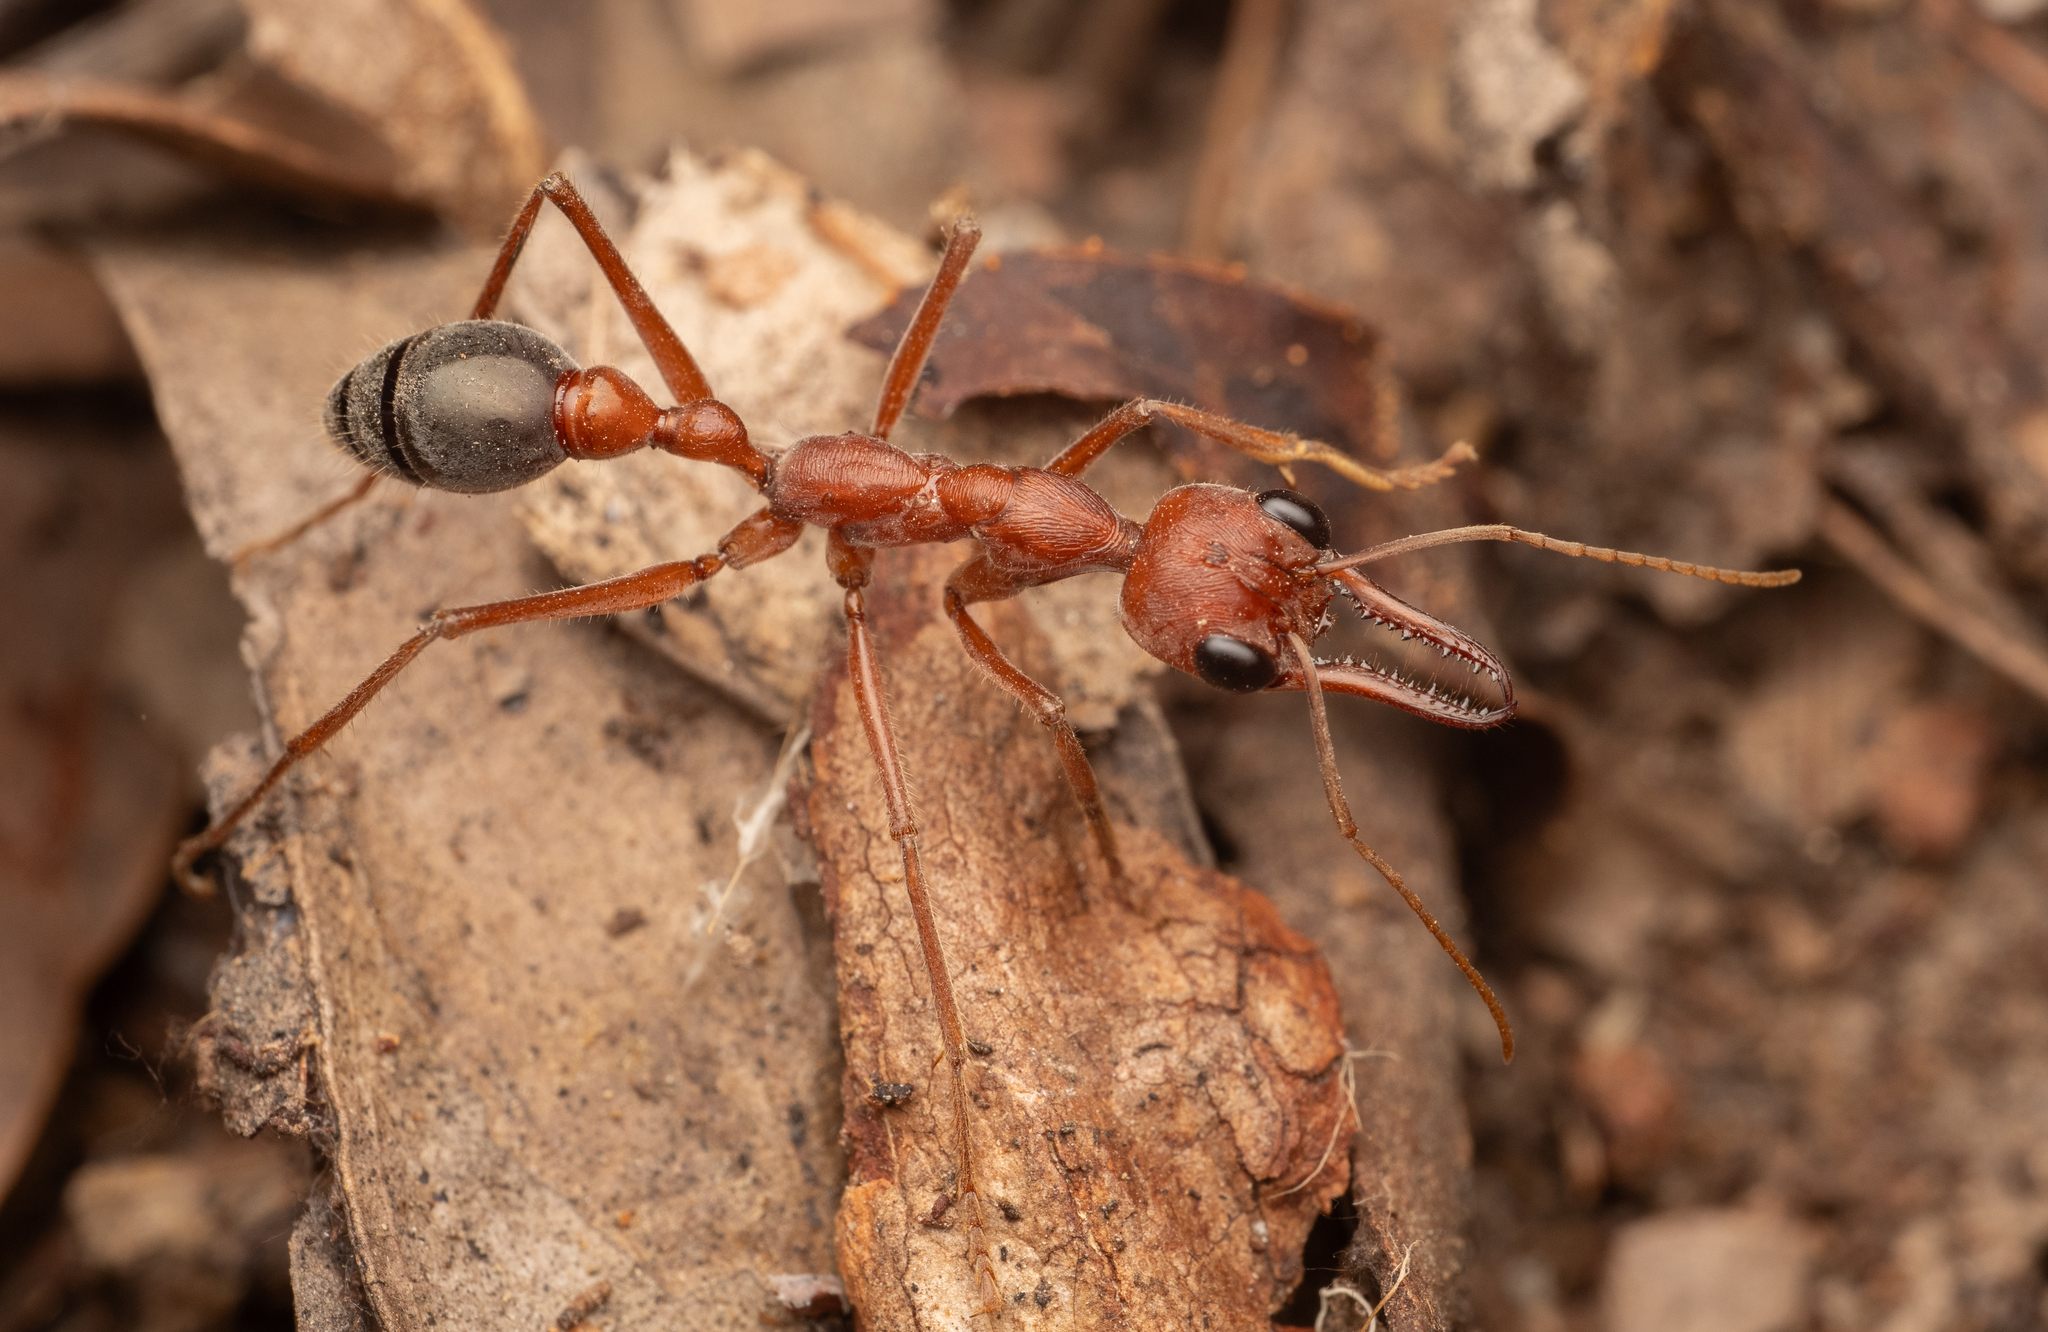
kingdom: Animalia
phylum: Arthropoda
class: Insecta
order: Hymenoptera
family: Formicidae
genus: Myrmecia
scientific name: Myrmecia brevinoda
